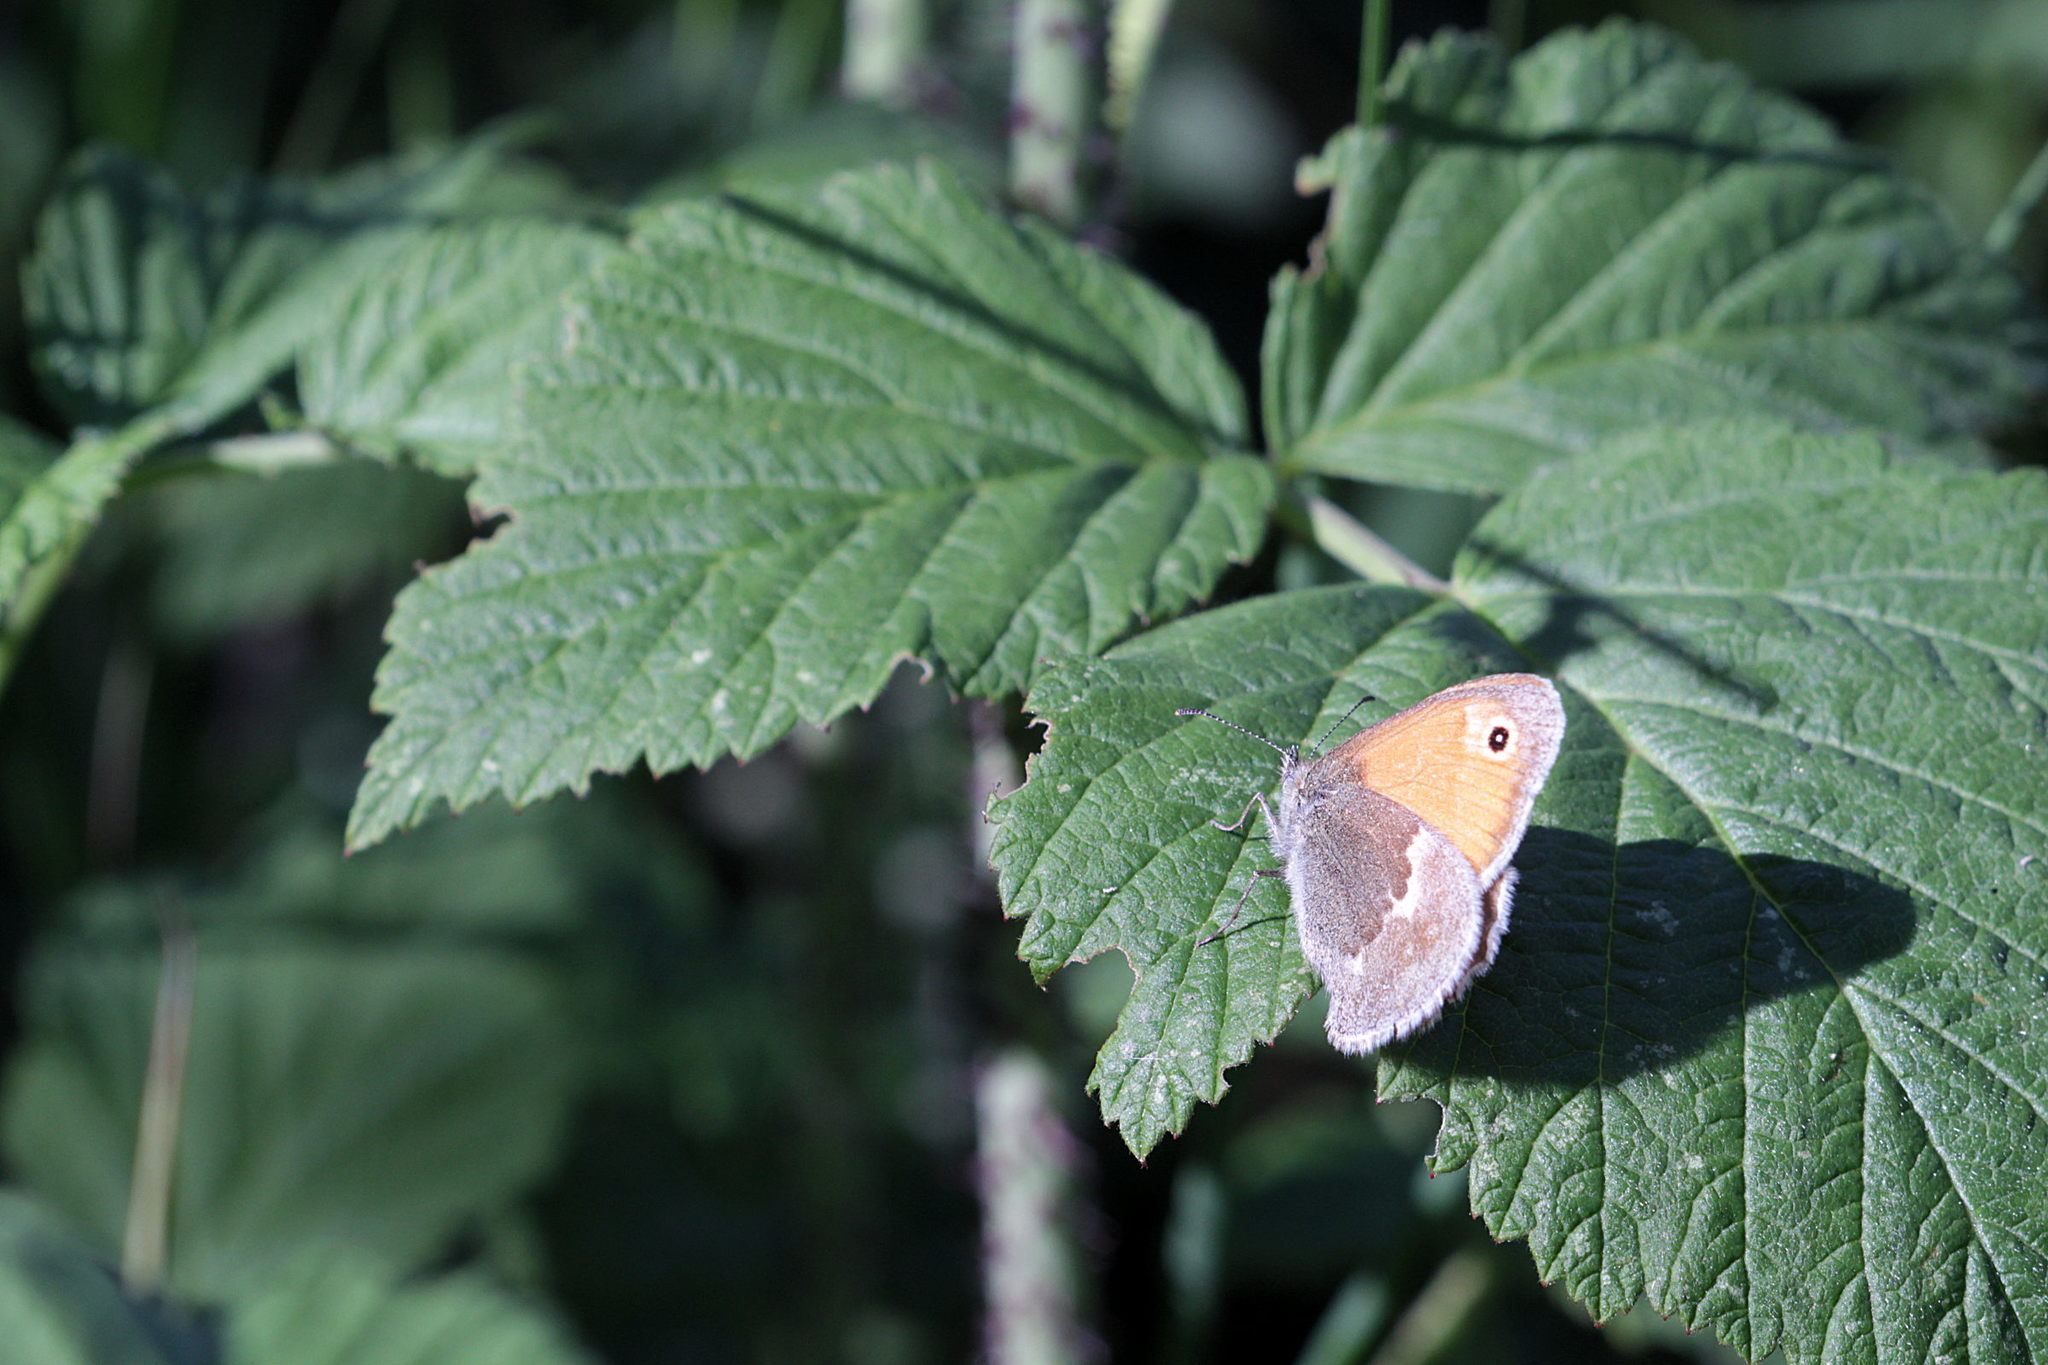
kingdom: Animalia
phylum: Arthropoda
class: Insecta
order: Lepidoptera
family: Nymphalidae
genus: Coenonympha
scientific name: Coenonympha pamphilus
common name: Small heath
